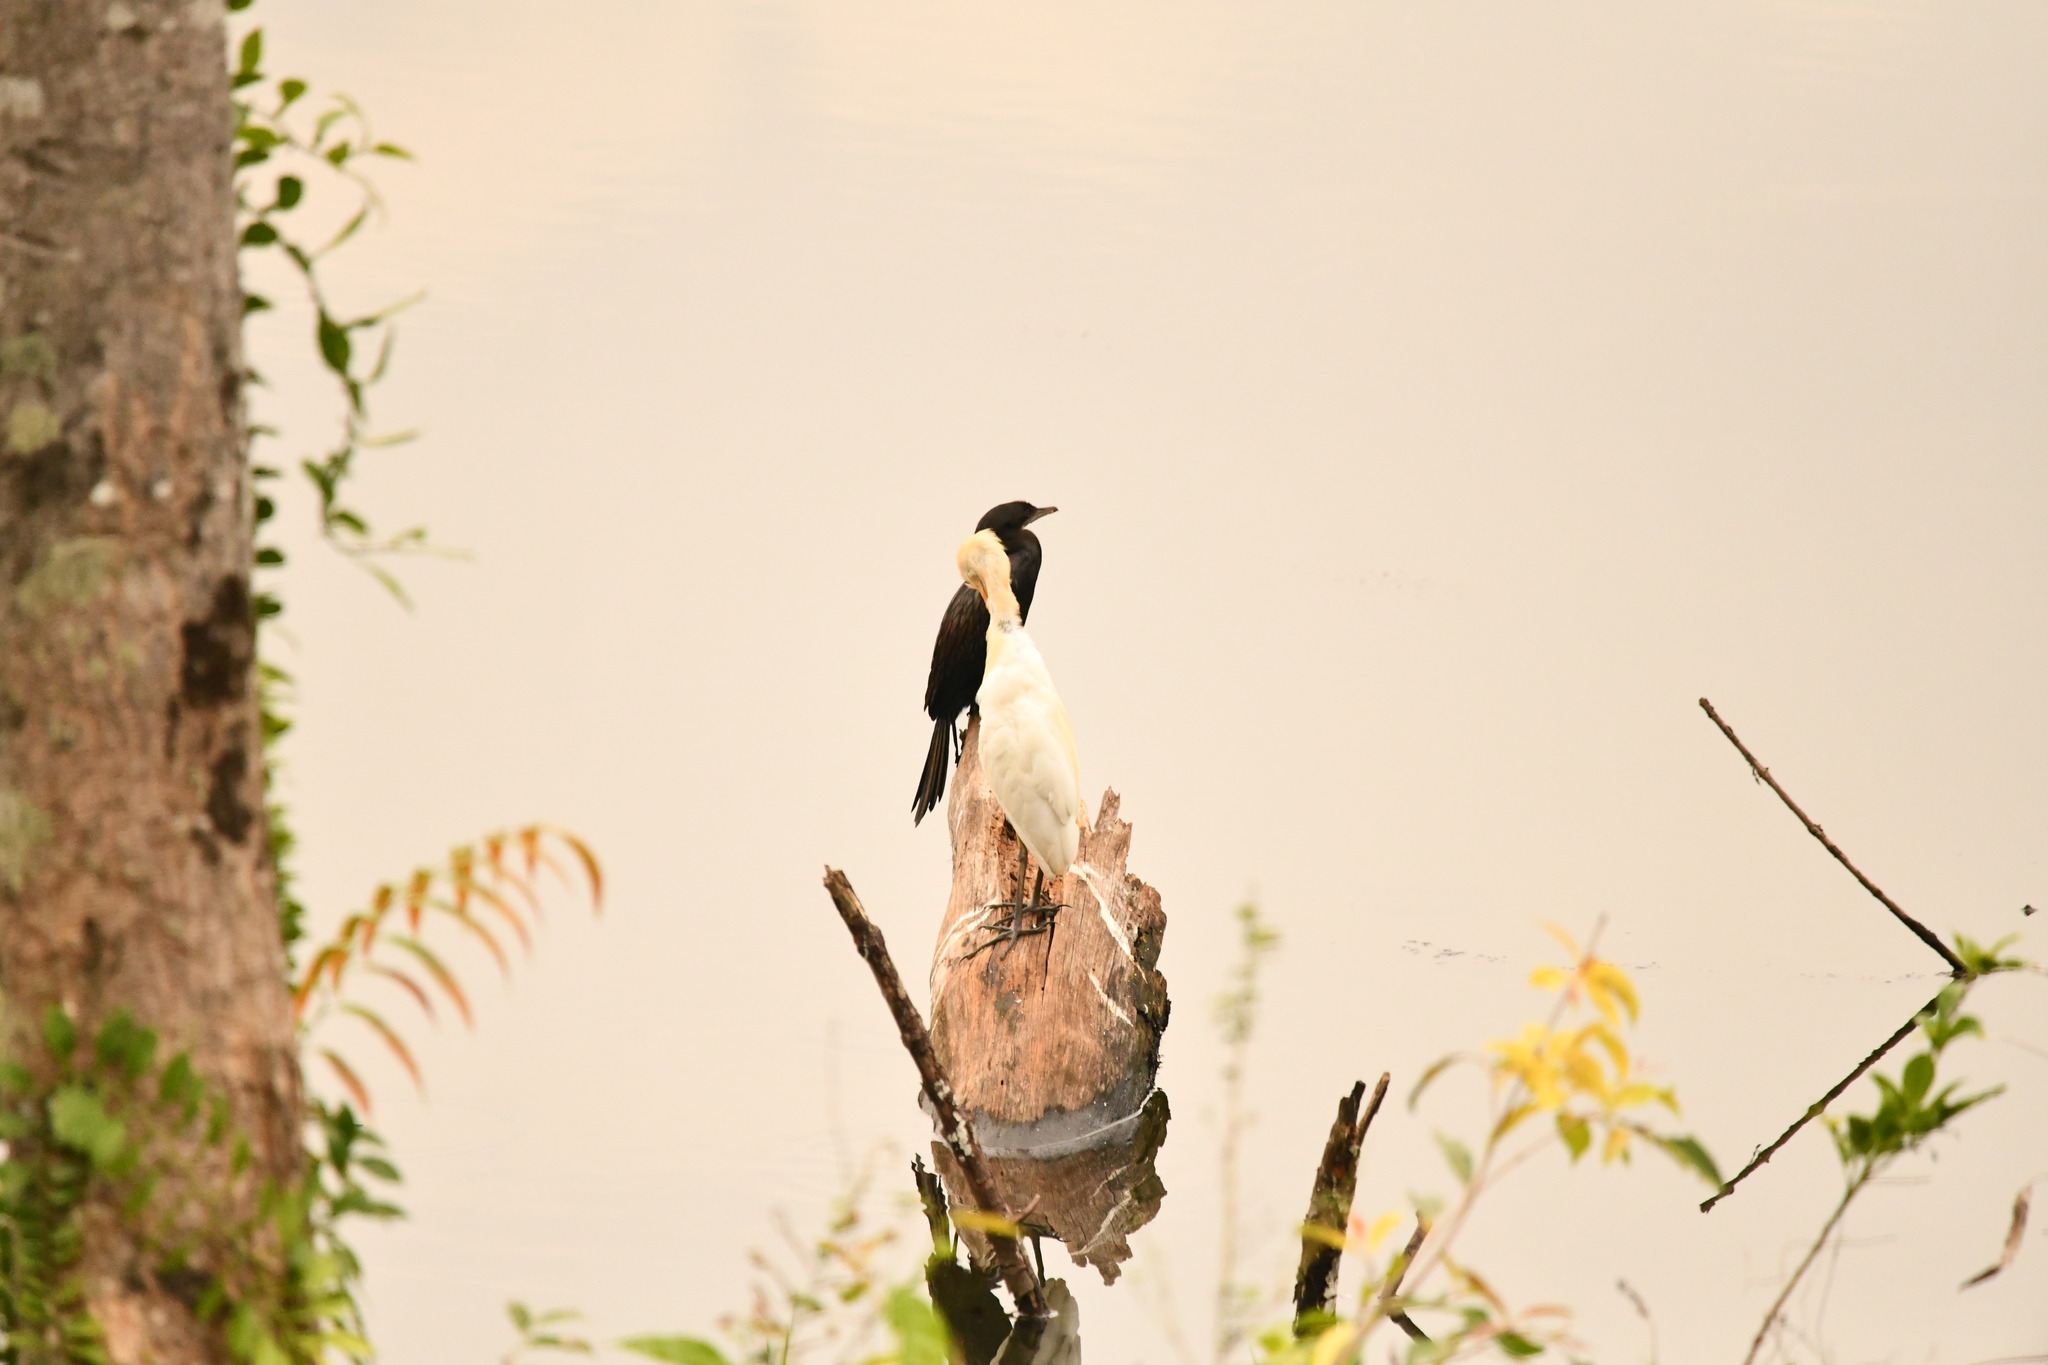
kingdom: Animalia
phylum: Chordata
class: Aves
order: Pelecaniformes
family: Ardeidae
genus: Bubulcus
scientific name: Bubulcus coromandus
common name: Eastern cattle egret
